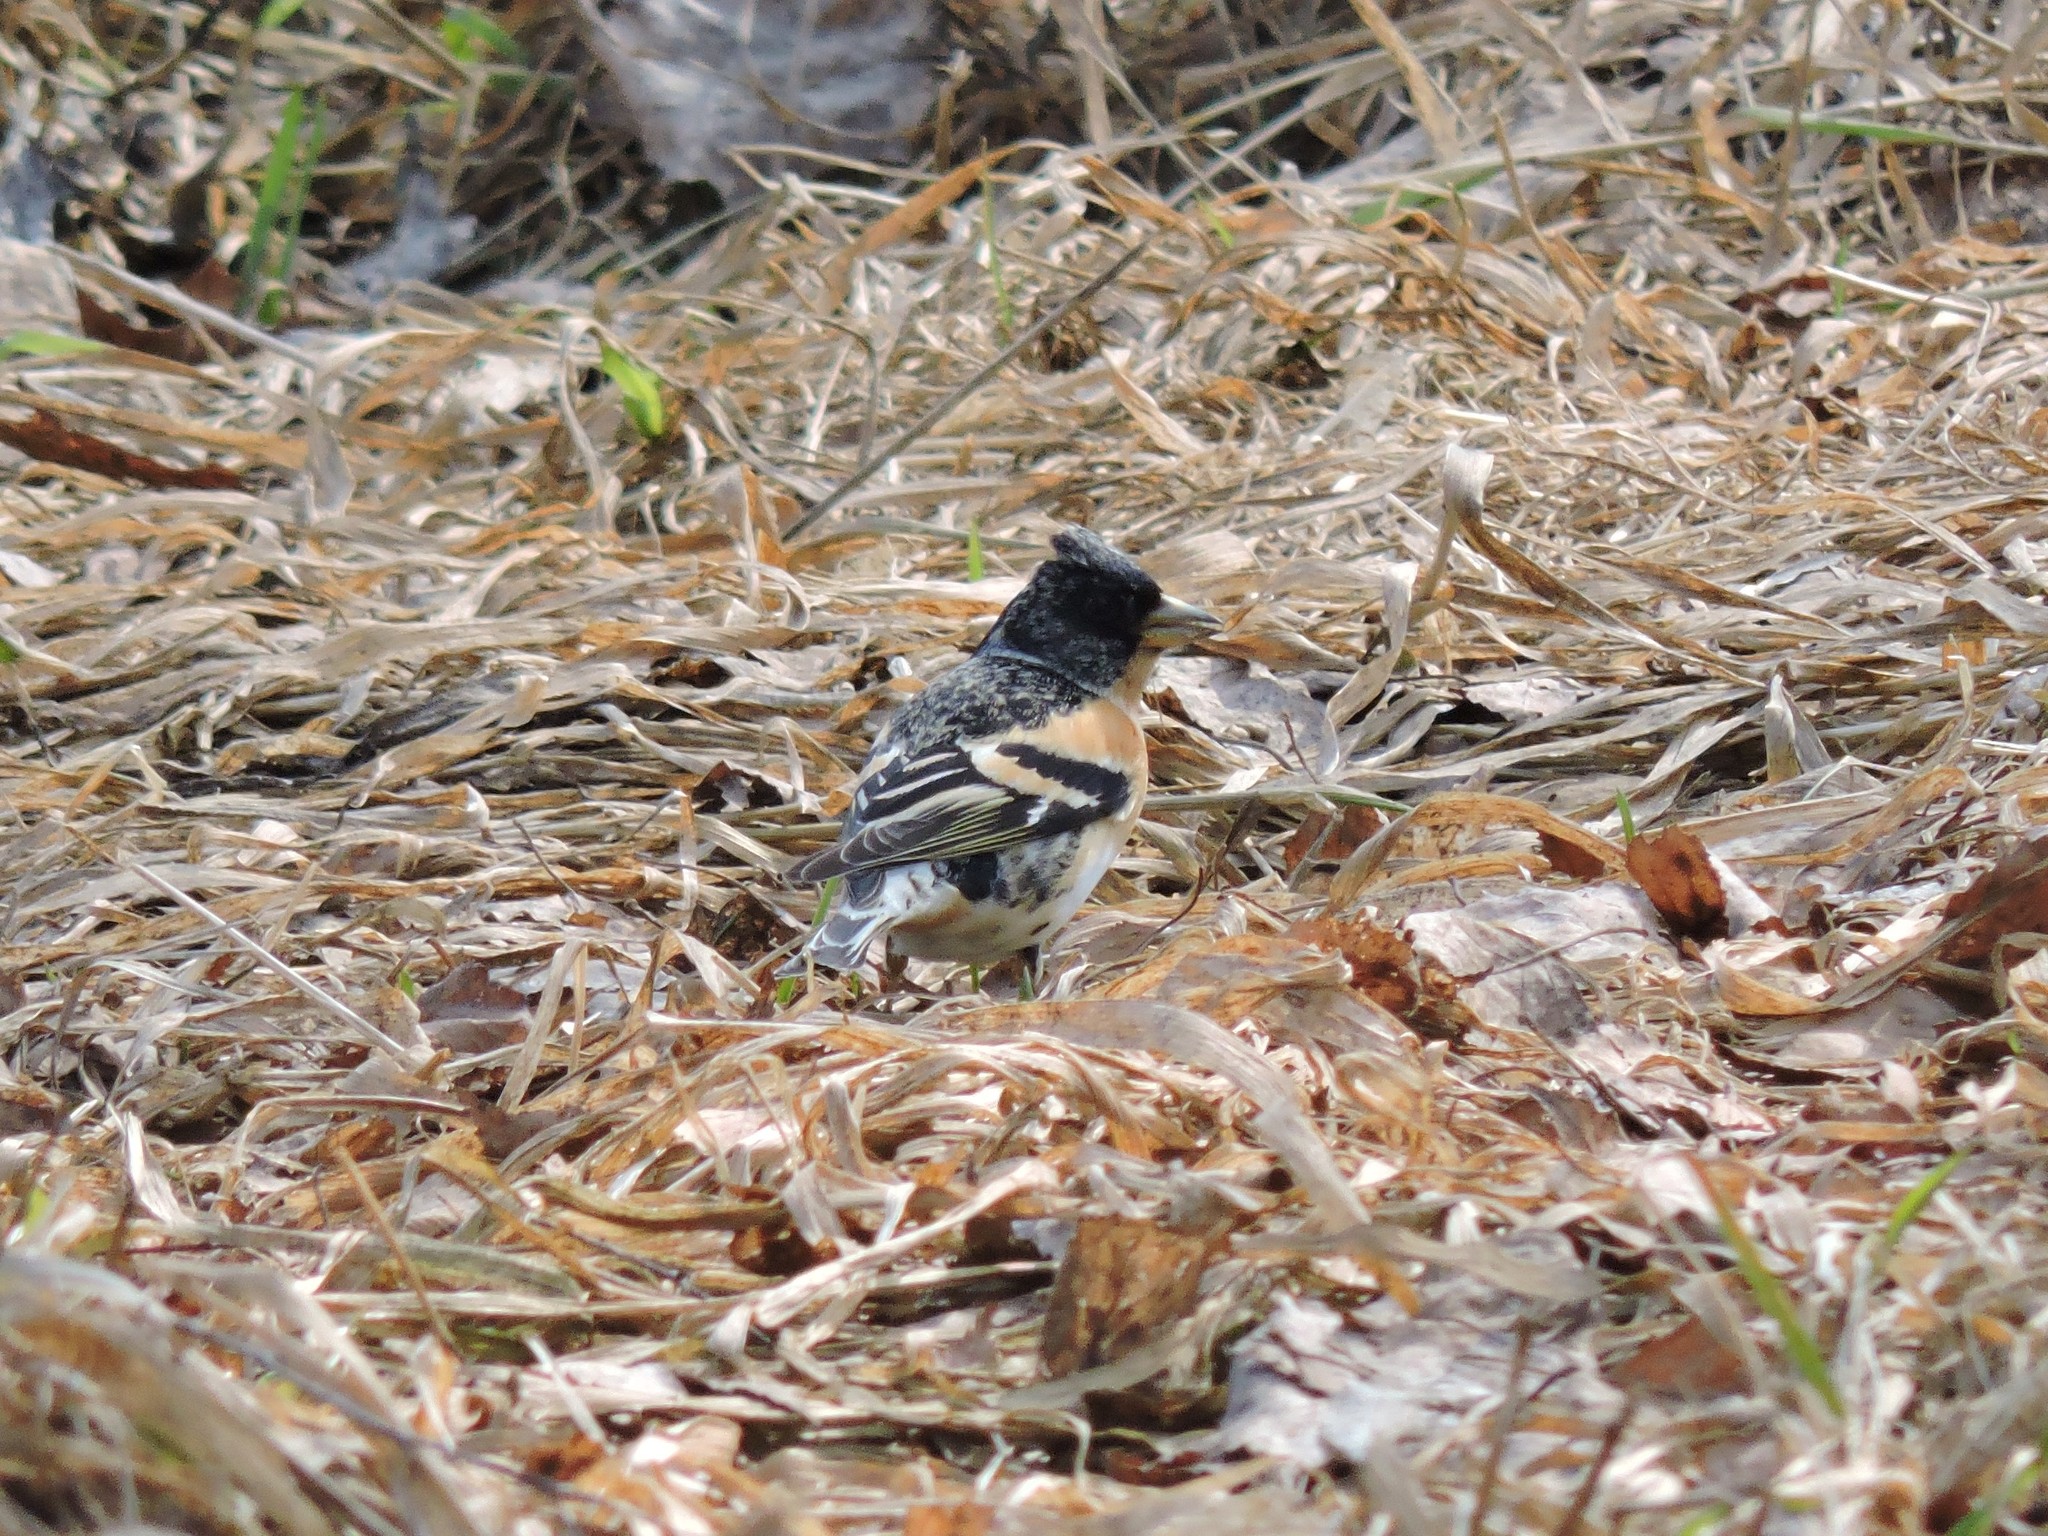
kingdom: Animalia
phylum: Chordata
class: Aves
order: Passeriformes
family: Fringillidae
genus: Fringilla
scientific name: Fringilla montifringilla
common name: Brambling
